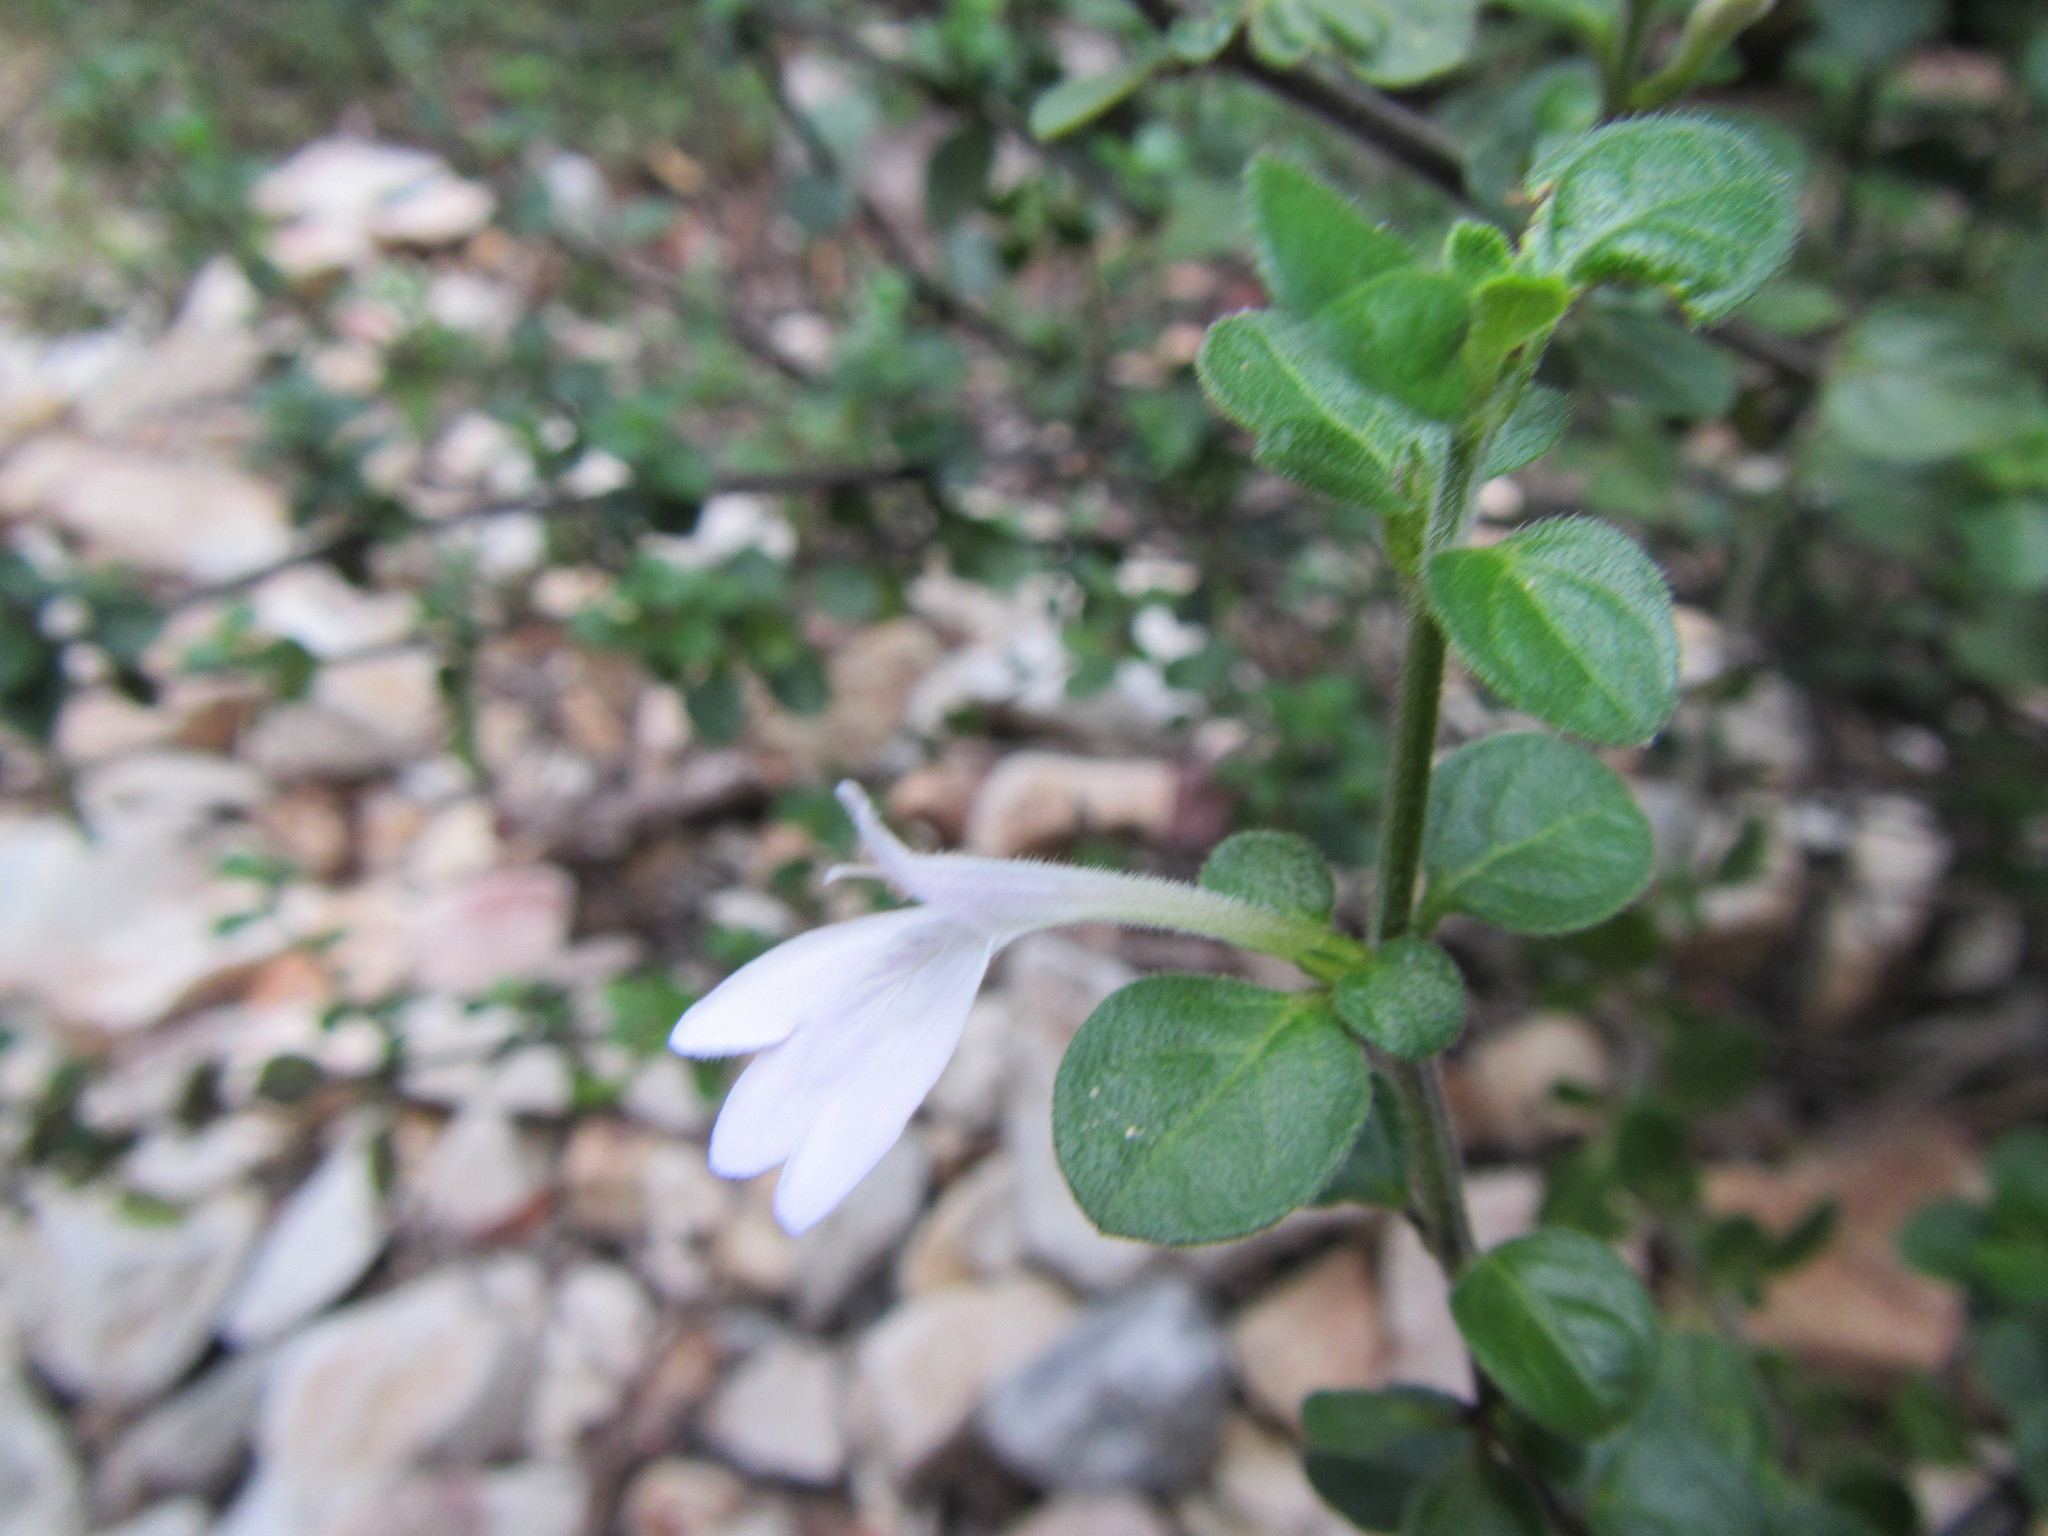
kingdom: Plantae
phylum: Tracheophyta
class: Magnoliopsida
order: Lamiales
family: Acanthaceae
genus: Justicia
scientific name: Justicia tubulosa
